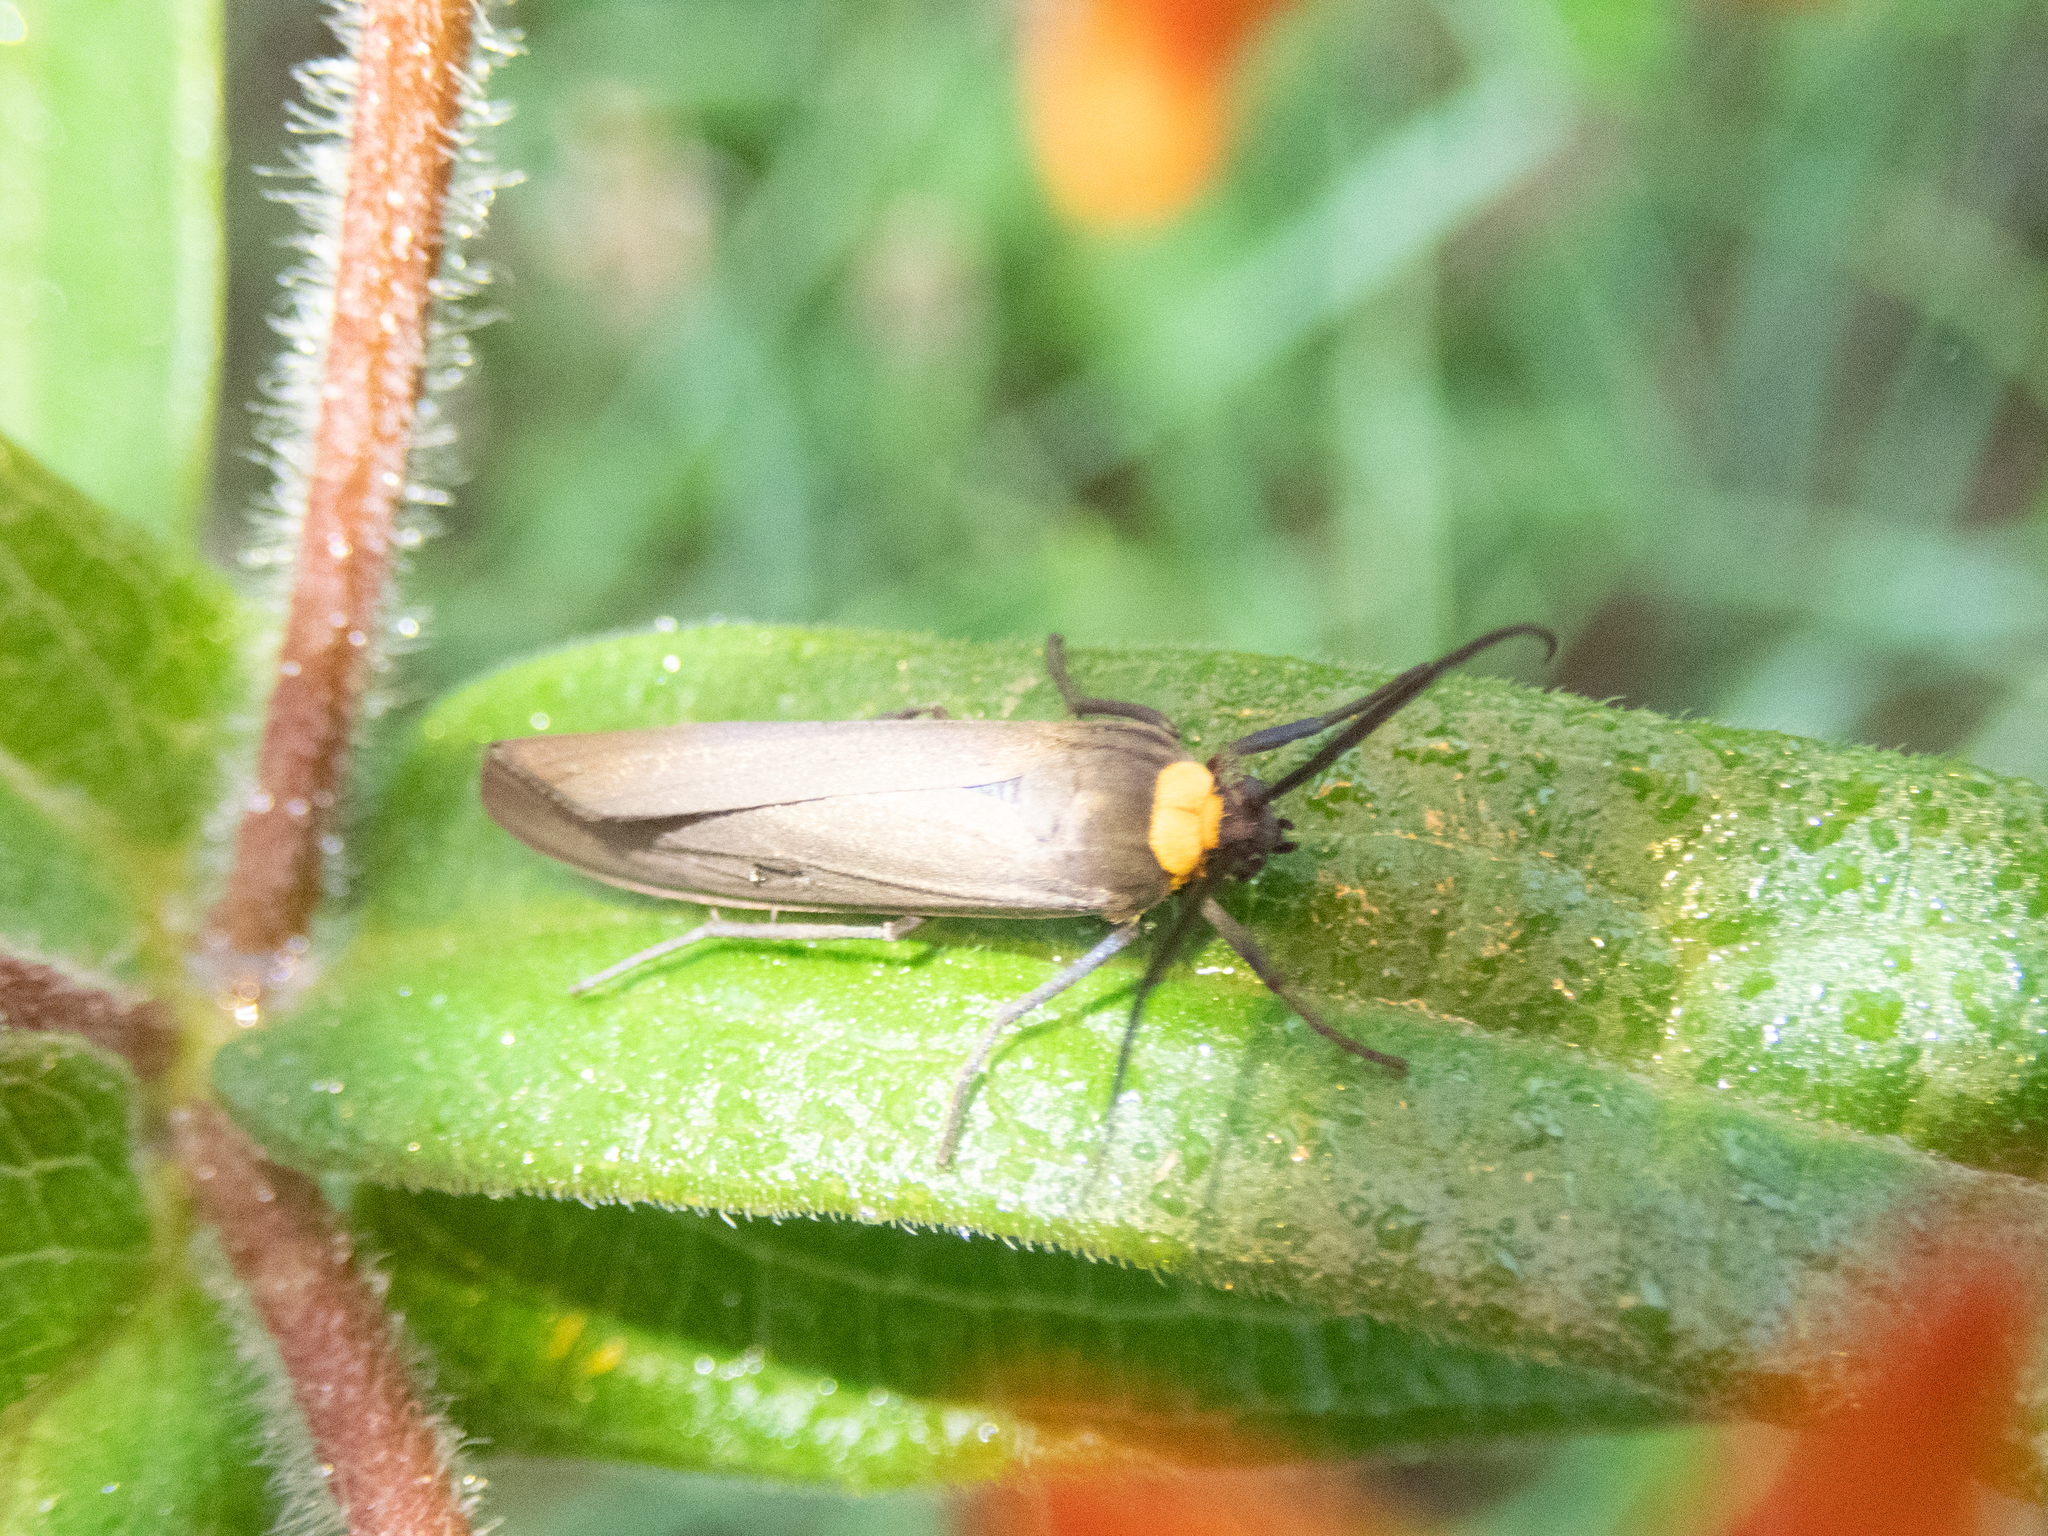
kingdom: Animalia
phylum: Arthropoda
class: Insecta
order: Lepidoptera
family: Erebidae
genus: Cisseps
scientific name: Cisseps fulvicollis
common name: Yellow-collared scape moth
